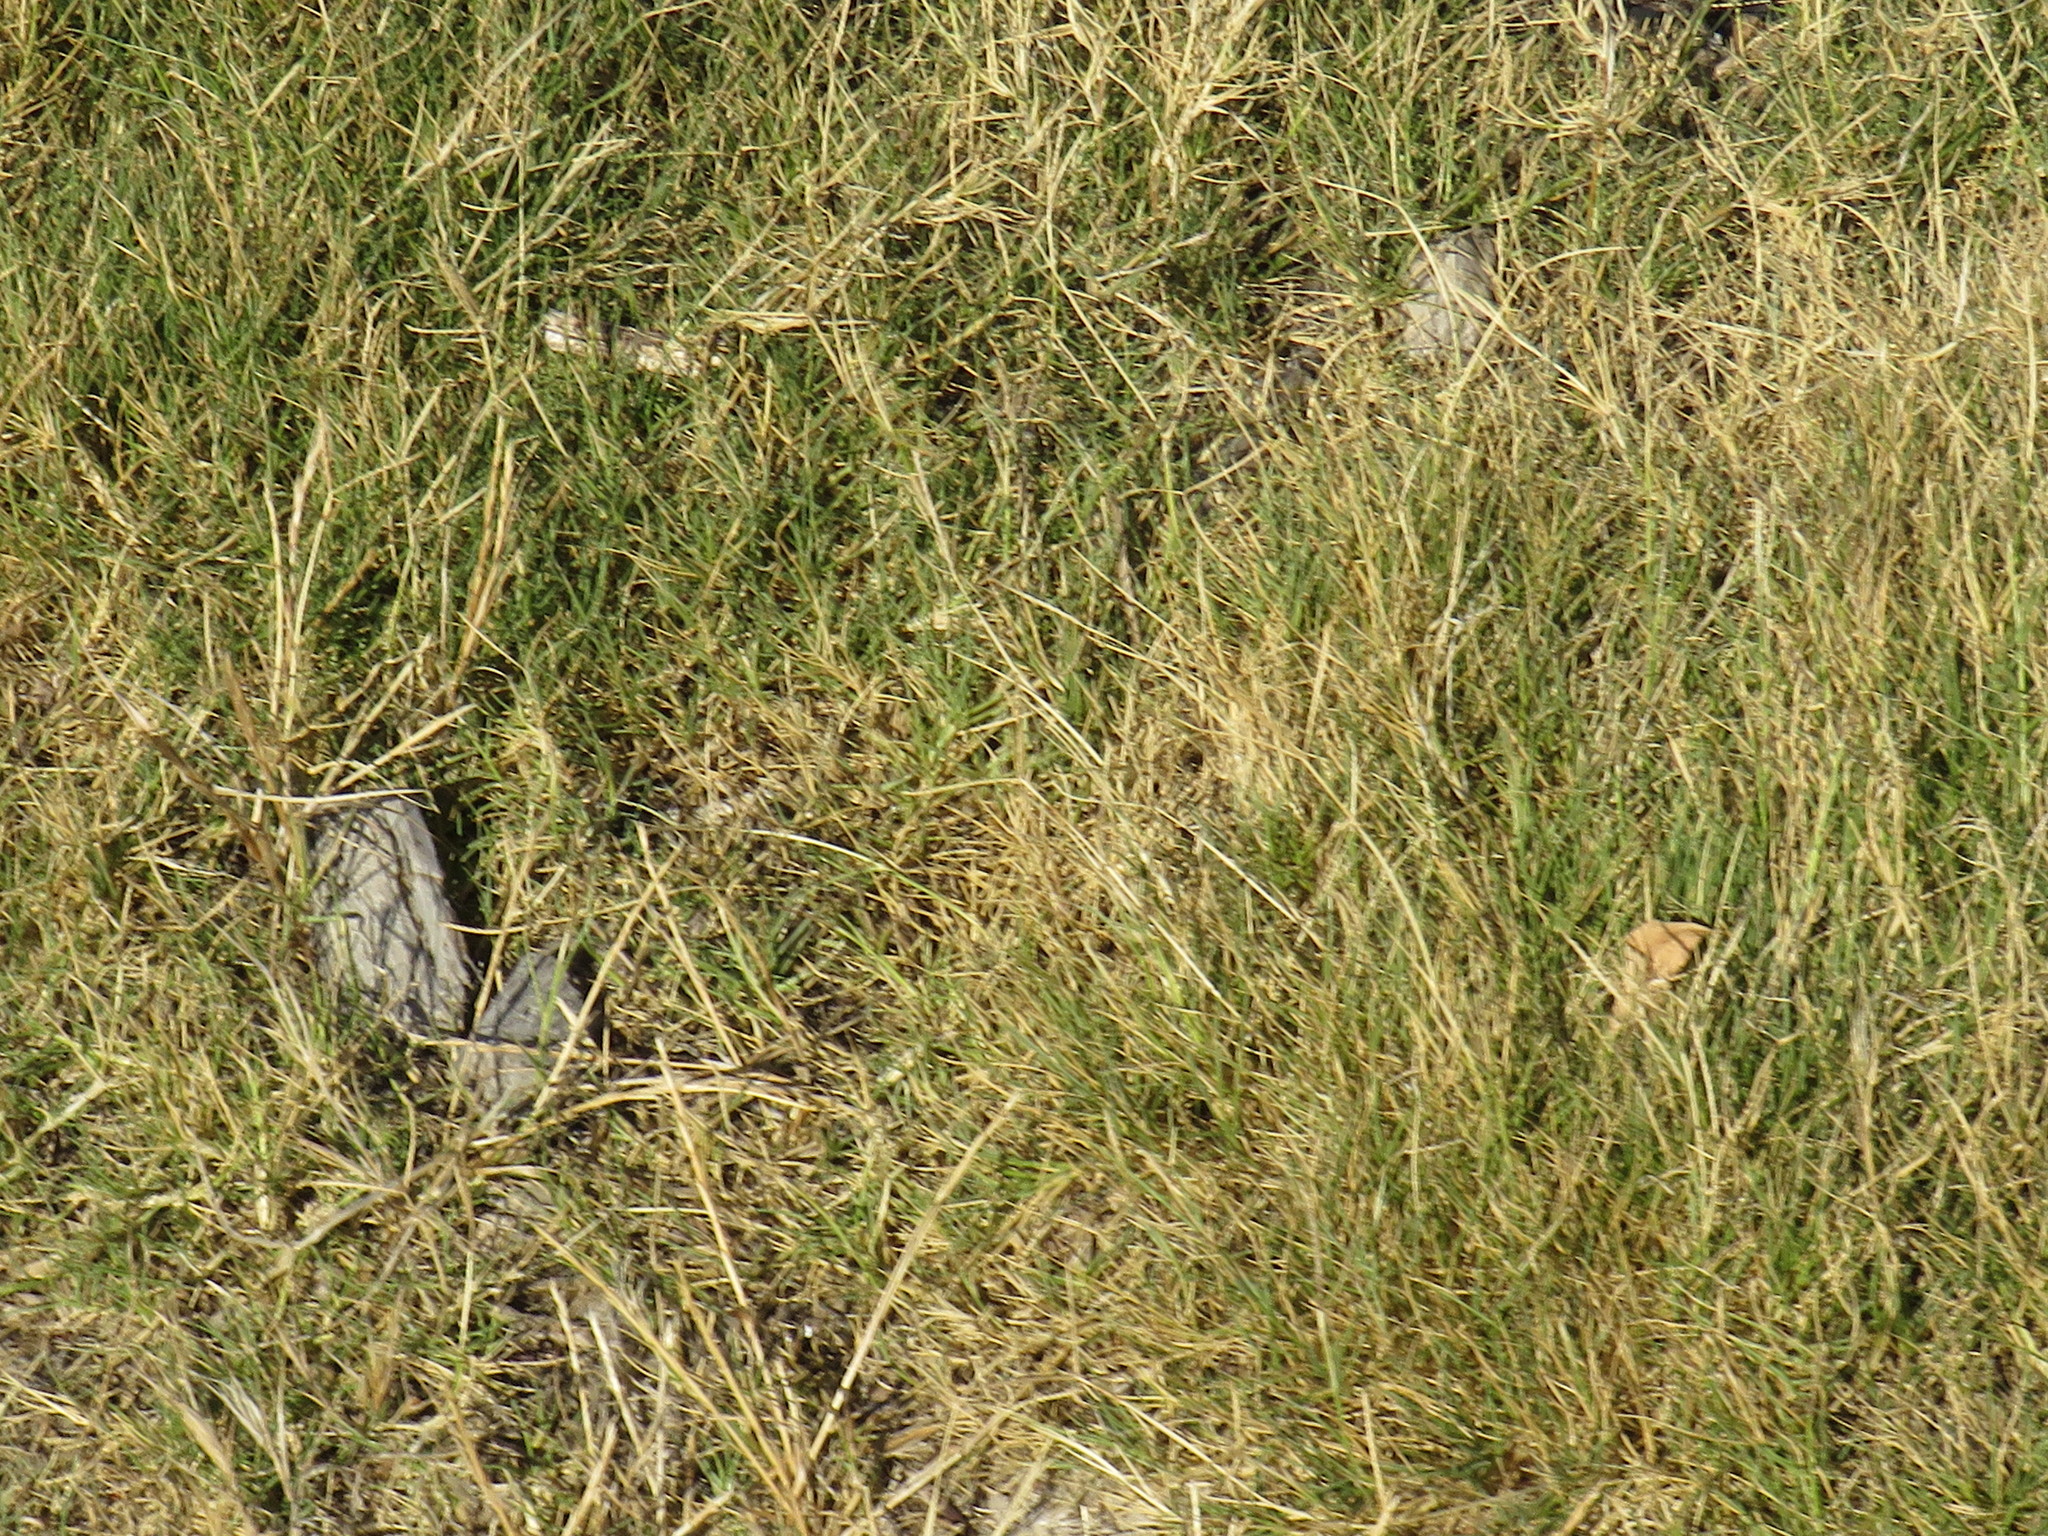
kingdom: Plantae
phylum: Tracheophyta
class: Liliopsida
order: Poales
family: Poaceae
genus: Cynodon
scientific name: Cynodon dactylon
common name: Bermuda grass
